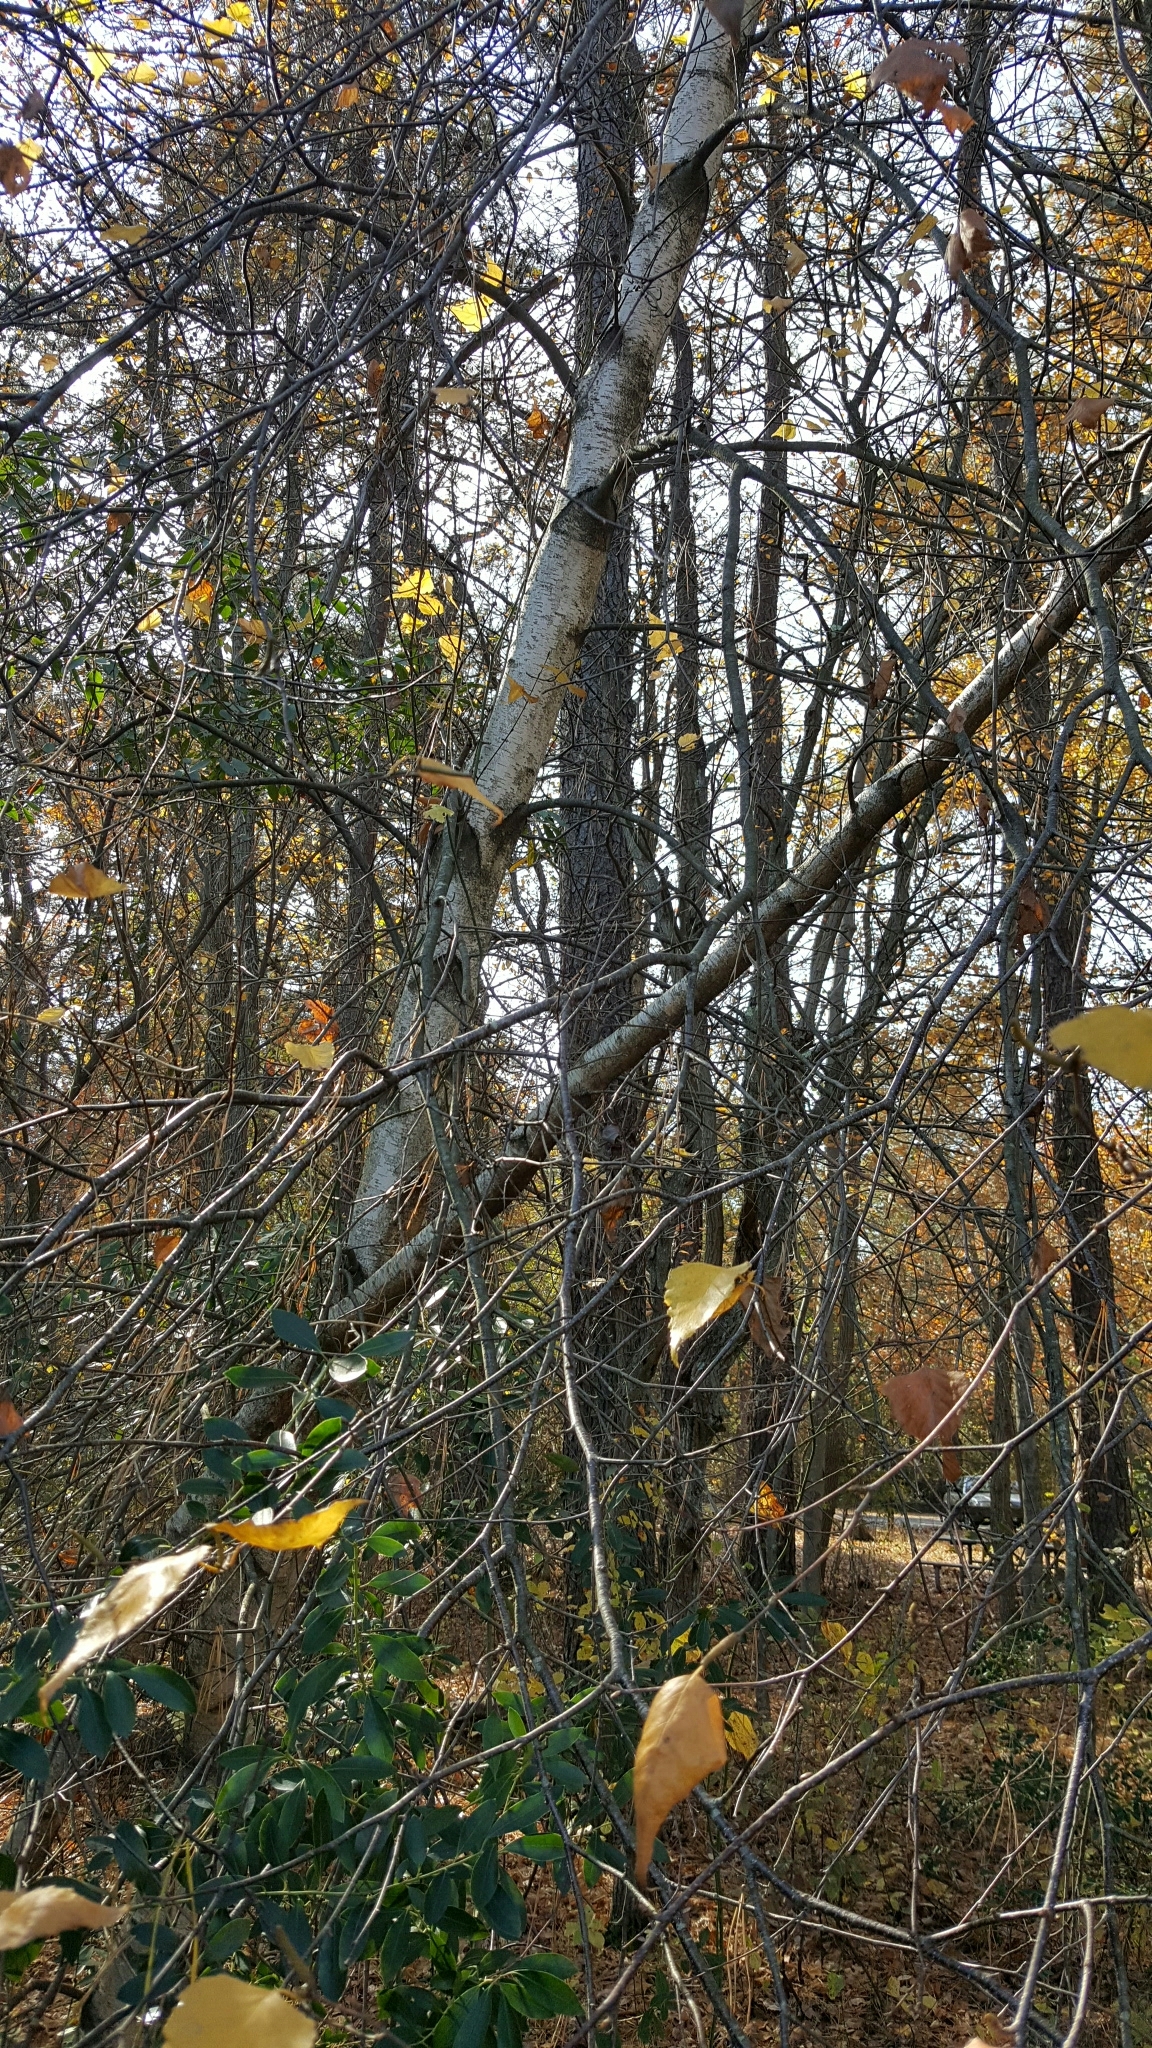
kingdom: Plantae
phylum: Tracheophyta
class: Magnoliopsida
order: Fagales
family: Betulaceae
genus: Betula
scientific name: Betula populifolia
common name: Fire birch
